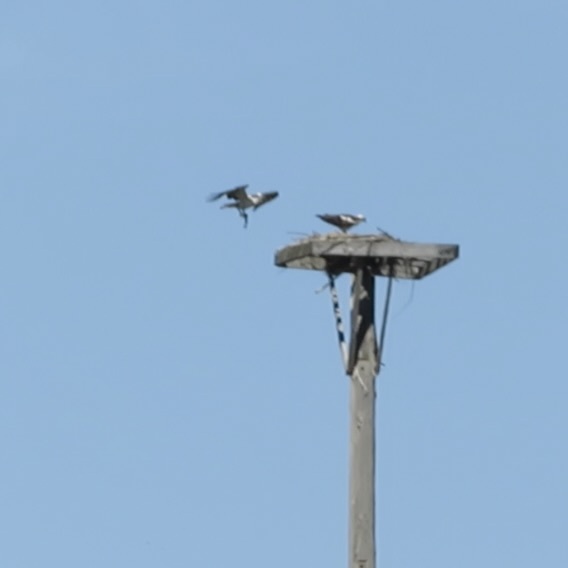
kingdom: Animalia
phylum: Chordata
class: Aves
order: Accipitriformes
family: Pandionidae
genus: Pandion
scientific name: Pandion haliaetus
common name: Osprey
